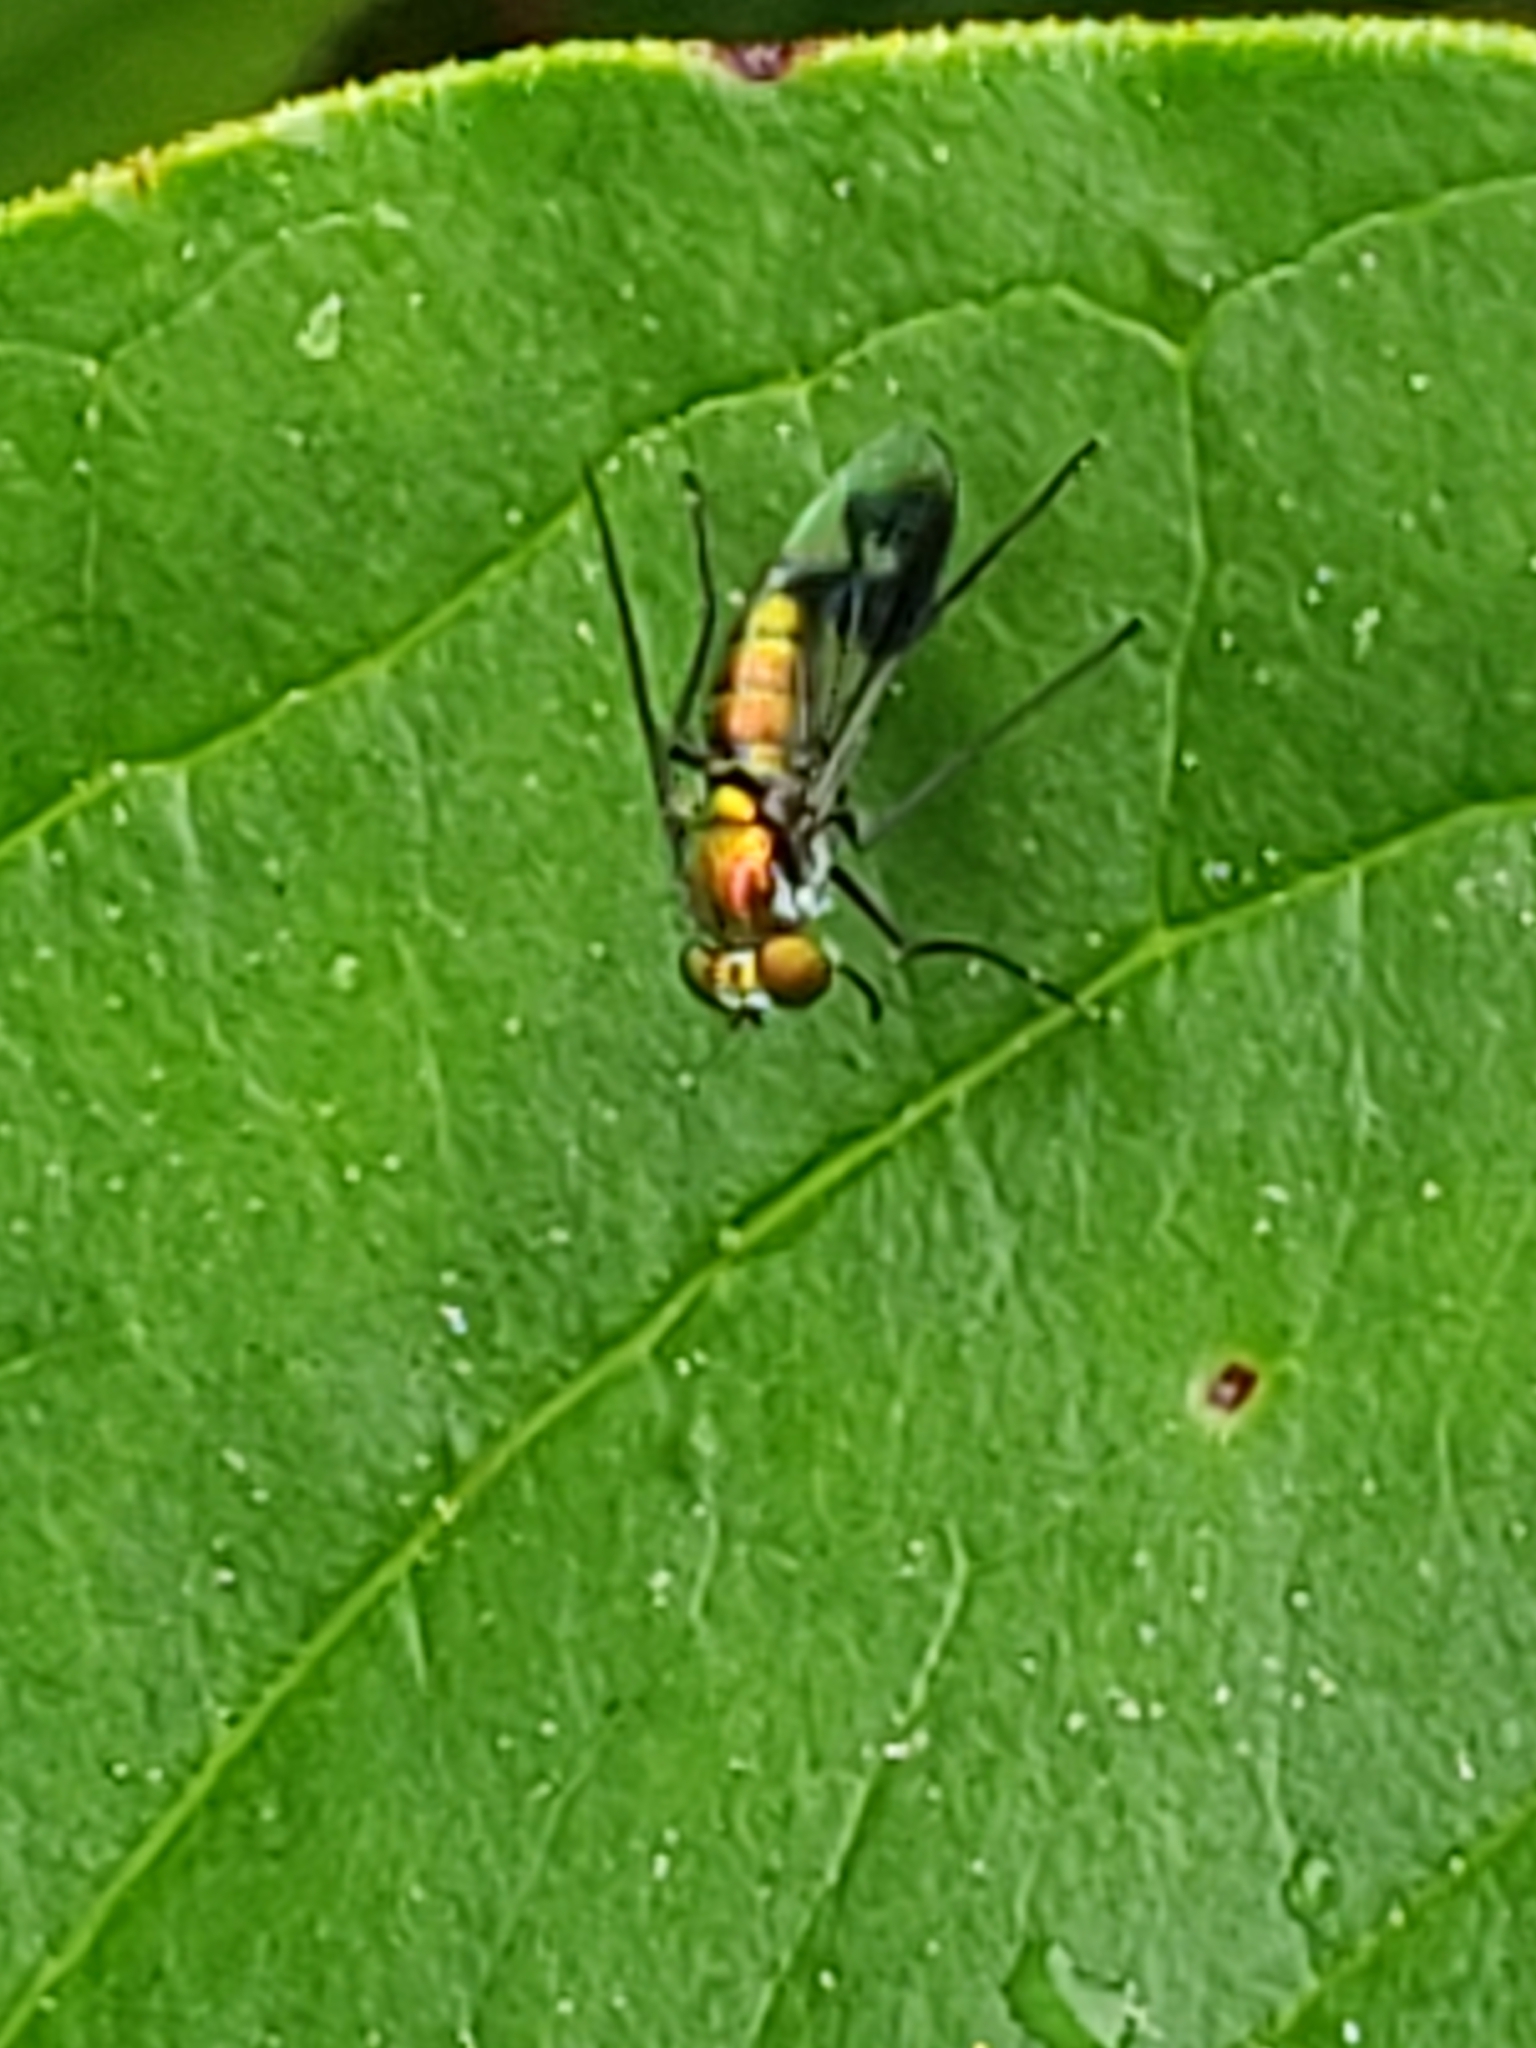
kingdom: Animalia
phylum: Arthropoda
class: Insecta
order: Diptera
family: Dolichopodidae
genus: Condylostylus
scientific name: Condylostylus patibulatus
